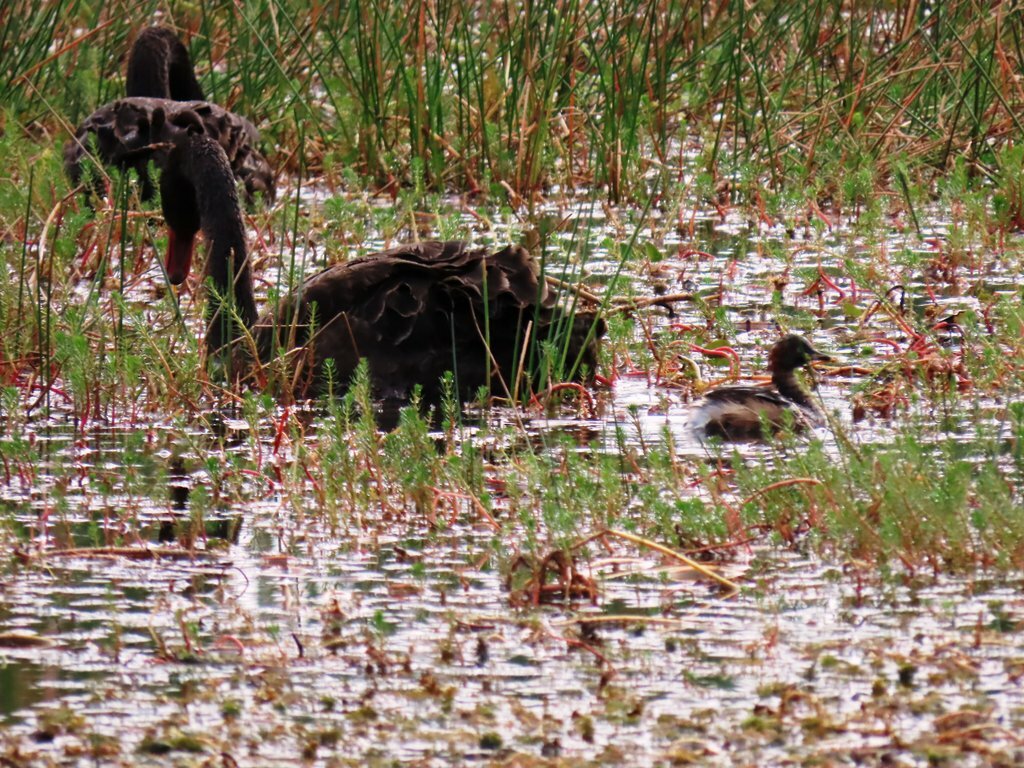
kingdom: Animalia
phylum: Chordata
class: Aves
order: Anseriformes
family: Anatidae
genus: Cygnus
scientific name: Cygnus atratus
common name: Black swan
